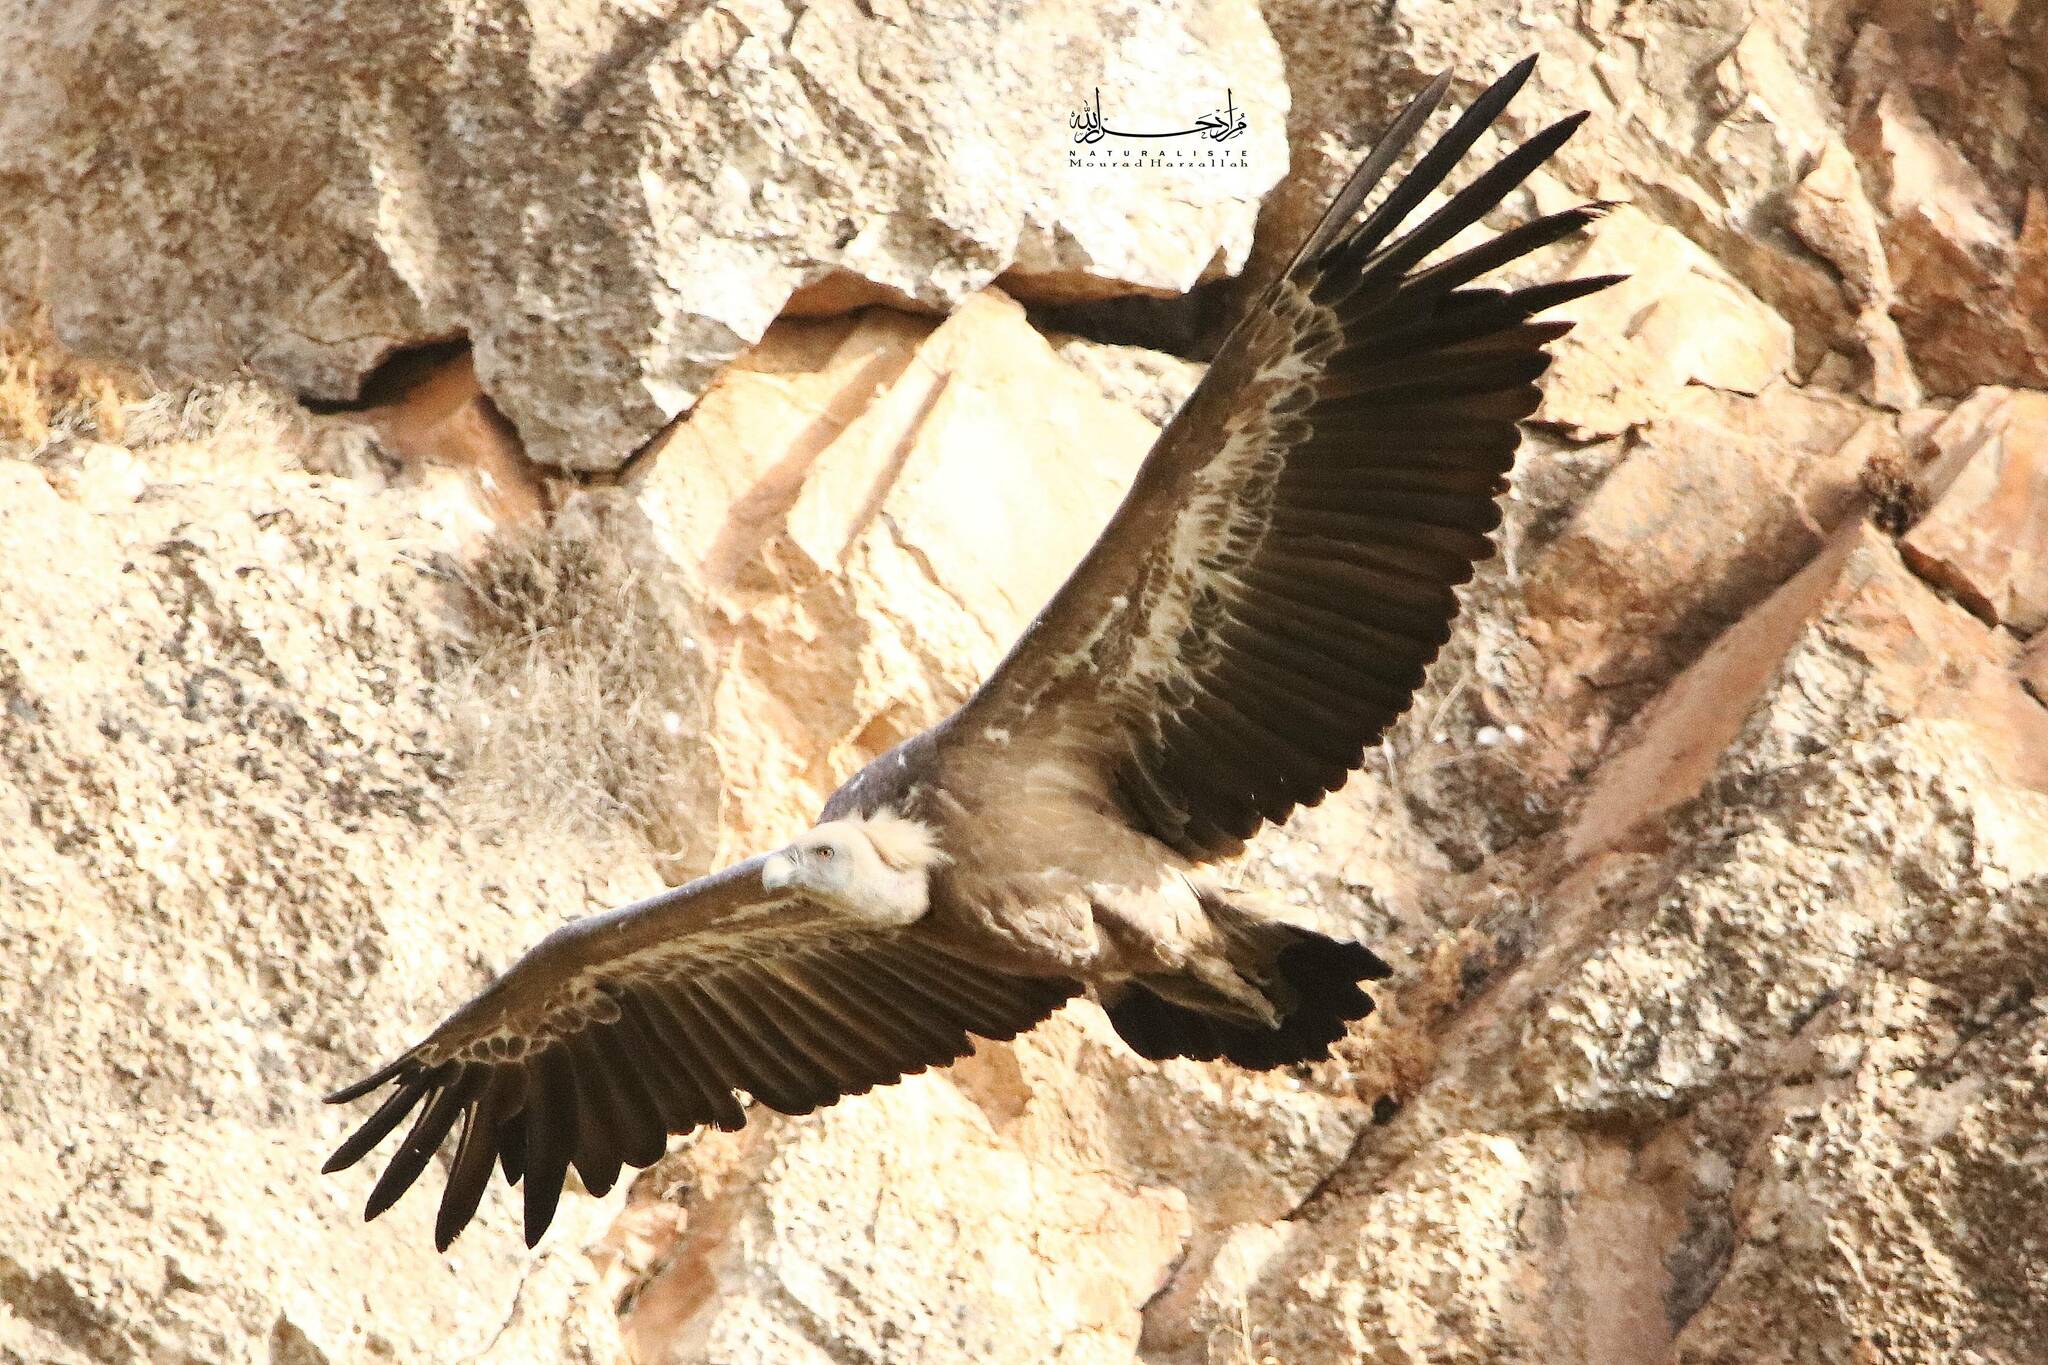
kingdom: Animalia
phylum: Chordata
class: Aves
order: Accipitriformes
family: Accipitridae
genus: Gyps
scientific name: Gyps fulvus
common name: Griffon vulture
